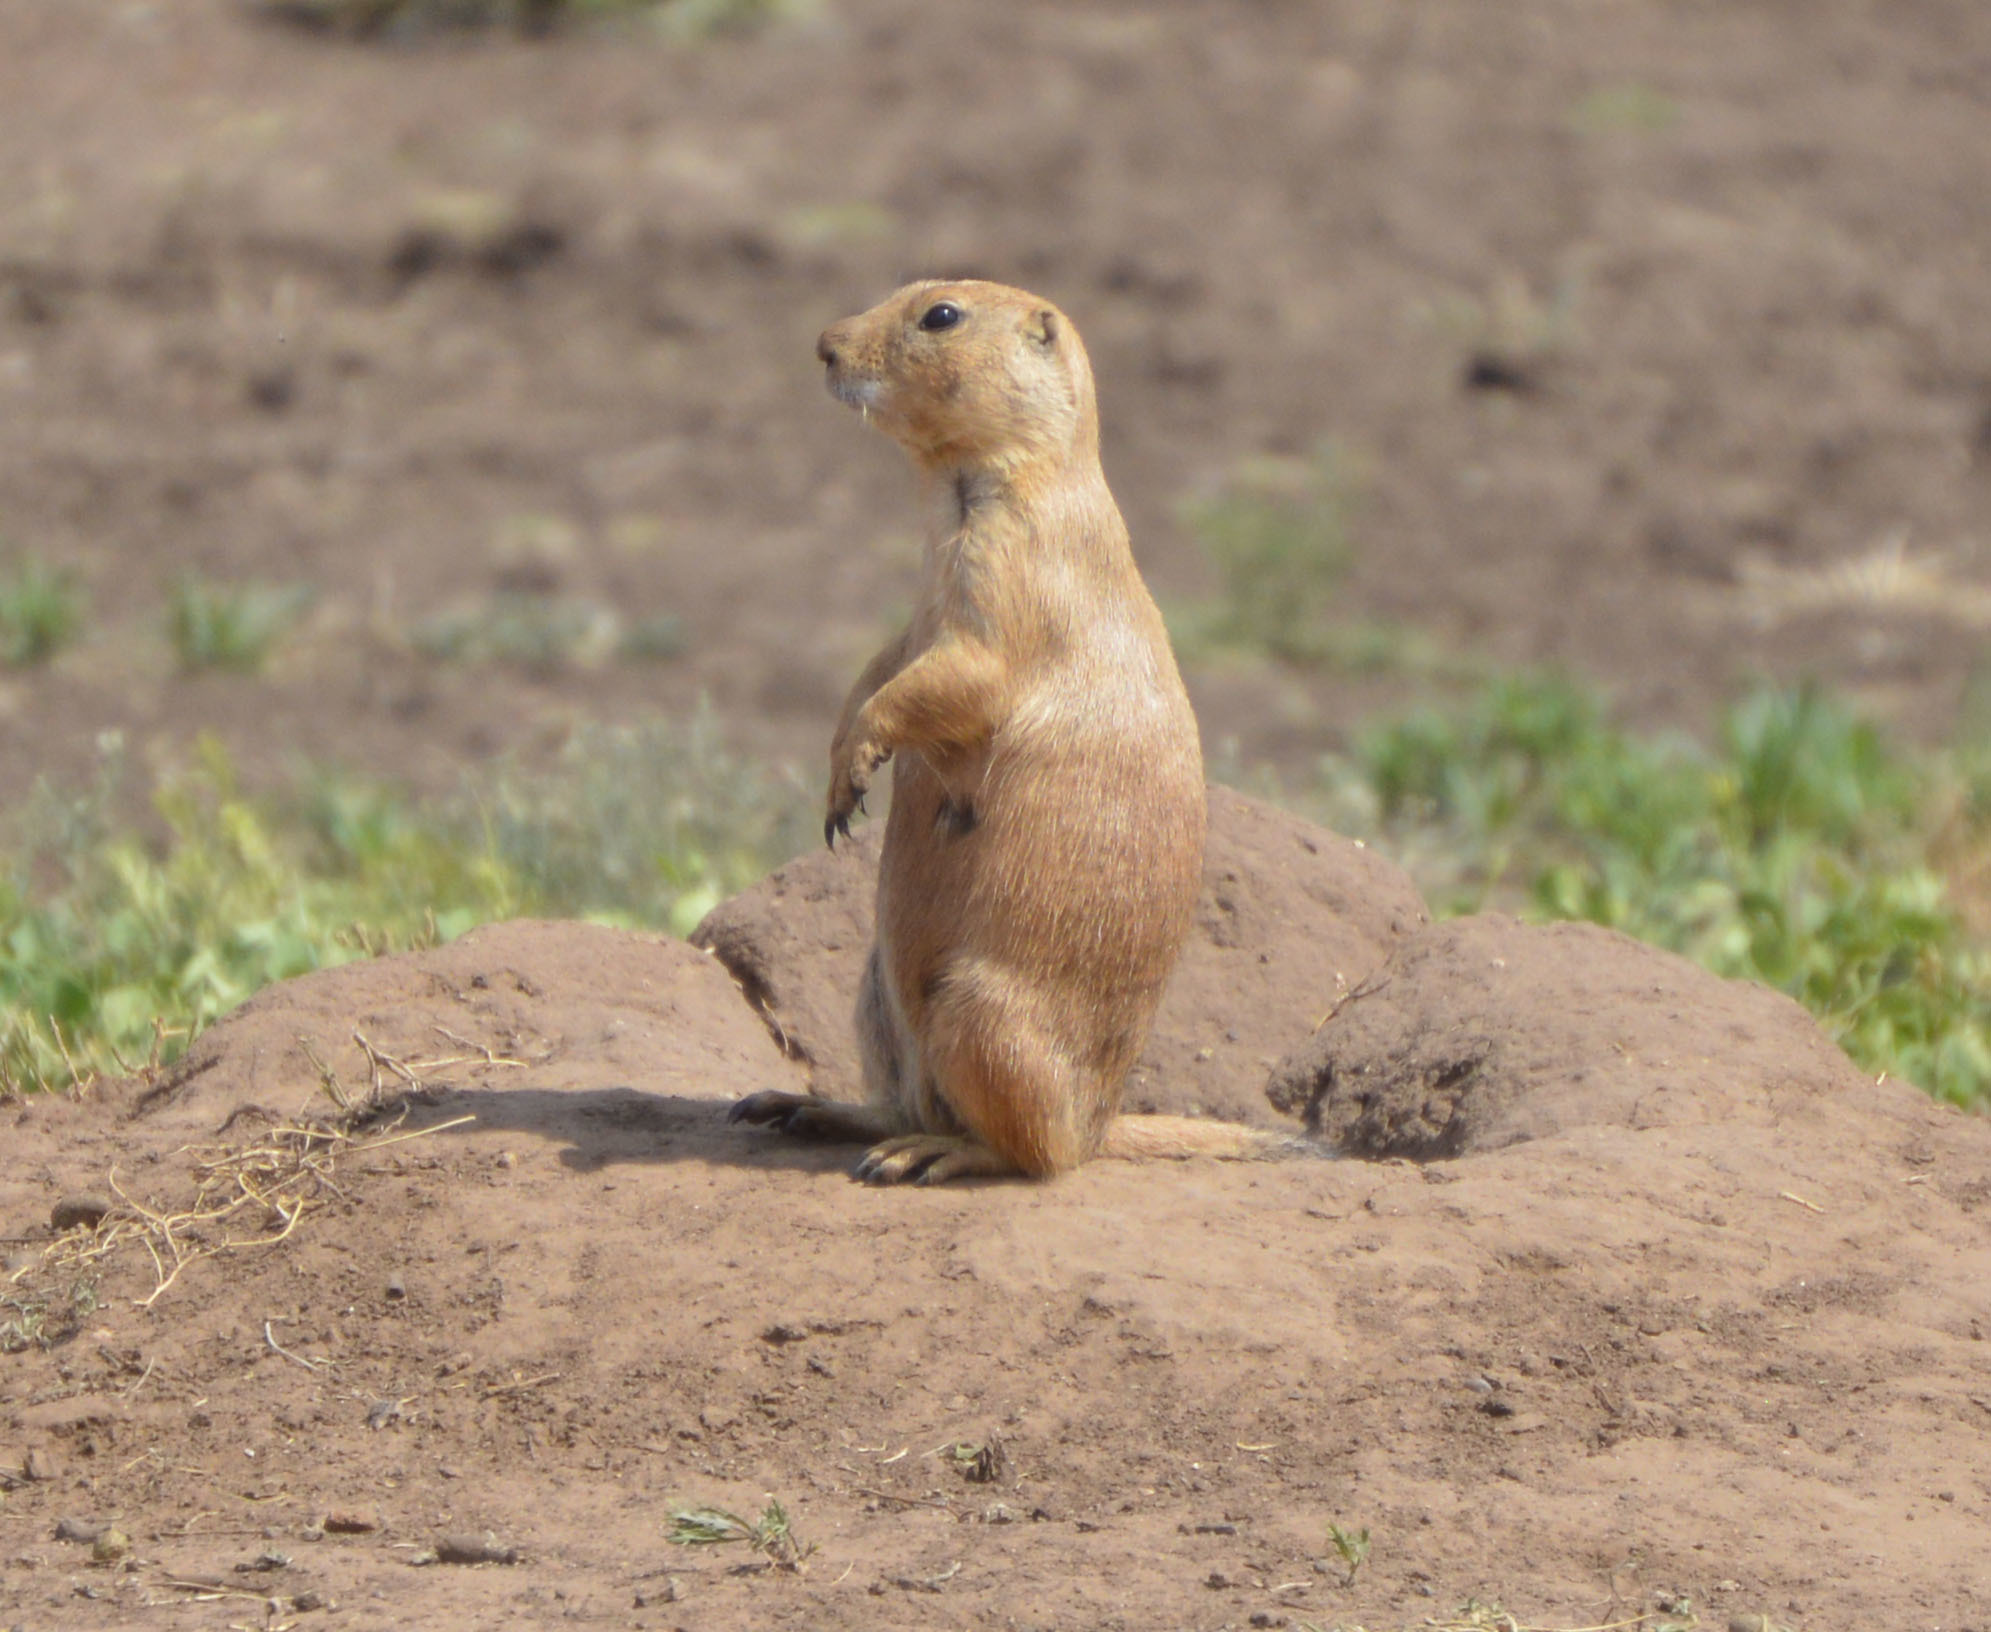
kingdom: Animalia
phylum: Chordata
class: Mammalia
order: Rodentia
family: Sciuridae
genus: Cynomys
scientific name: Cynomys ludovicianus
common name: Black-tailed prairie dog
